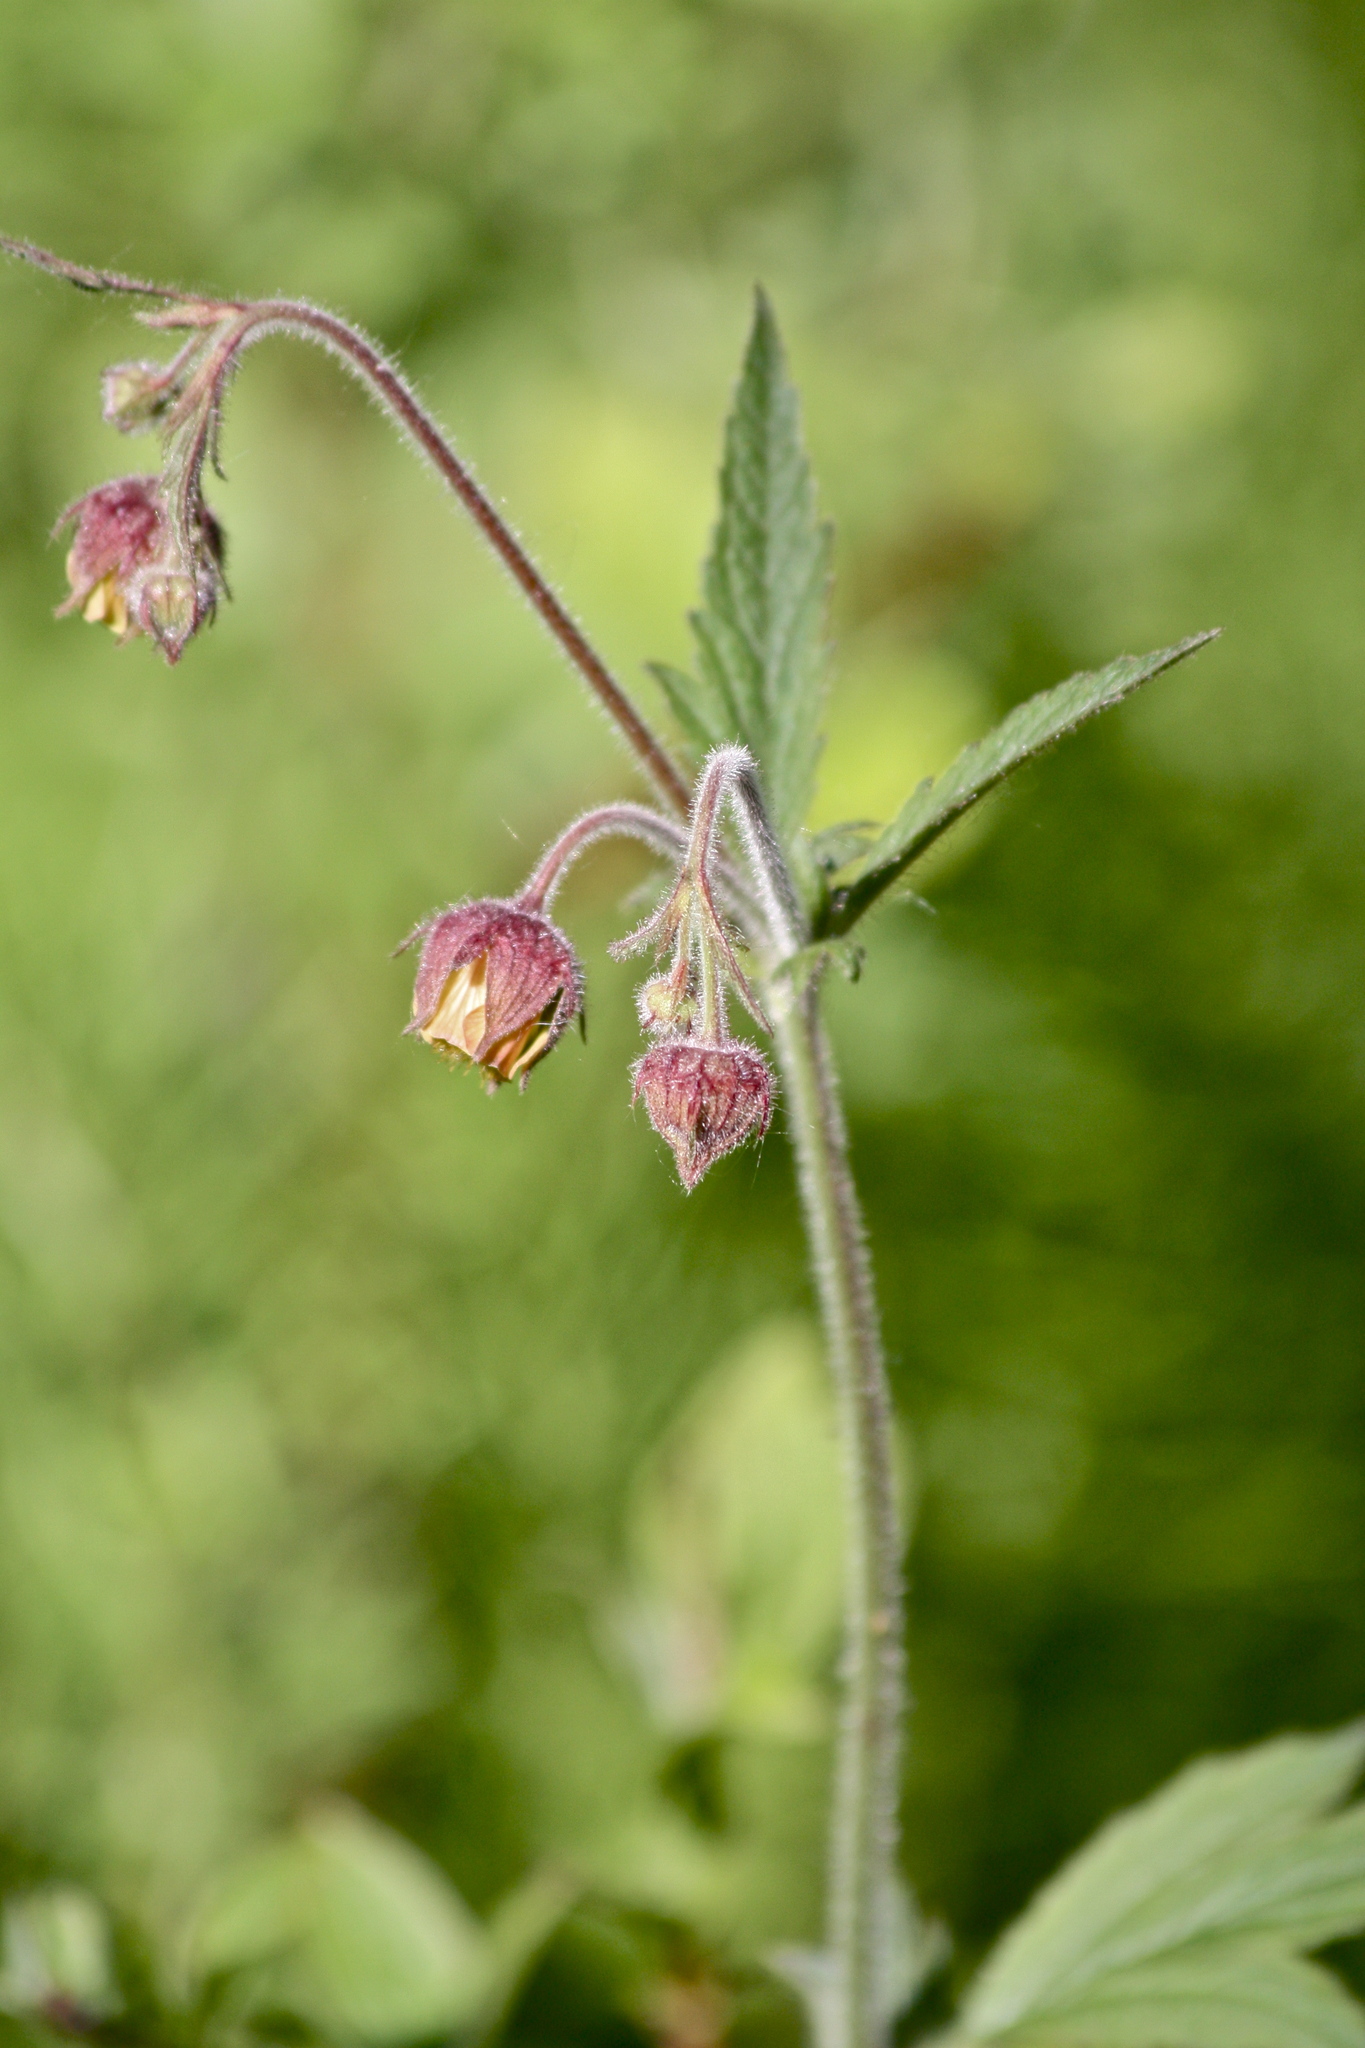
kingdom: Plantae
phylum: Tracheophyta
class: Magnoliopsida
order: Rosales
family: Rosaceae
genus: Geum
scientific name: Geum rivale
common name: Water avens
